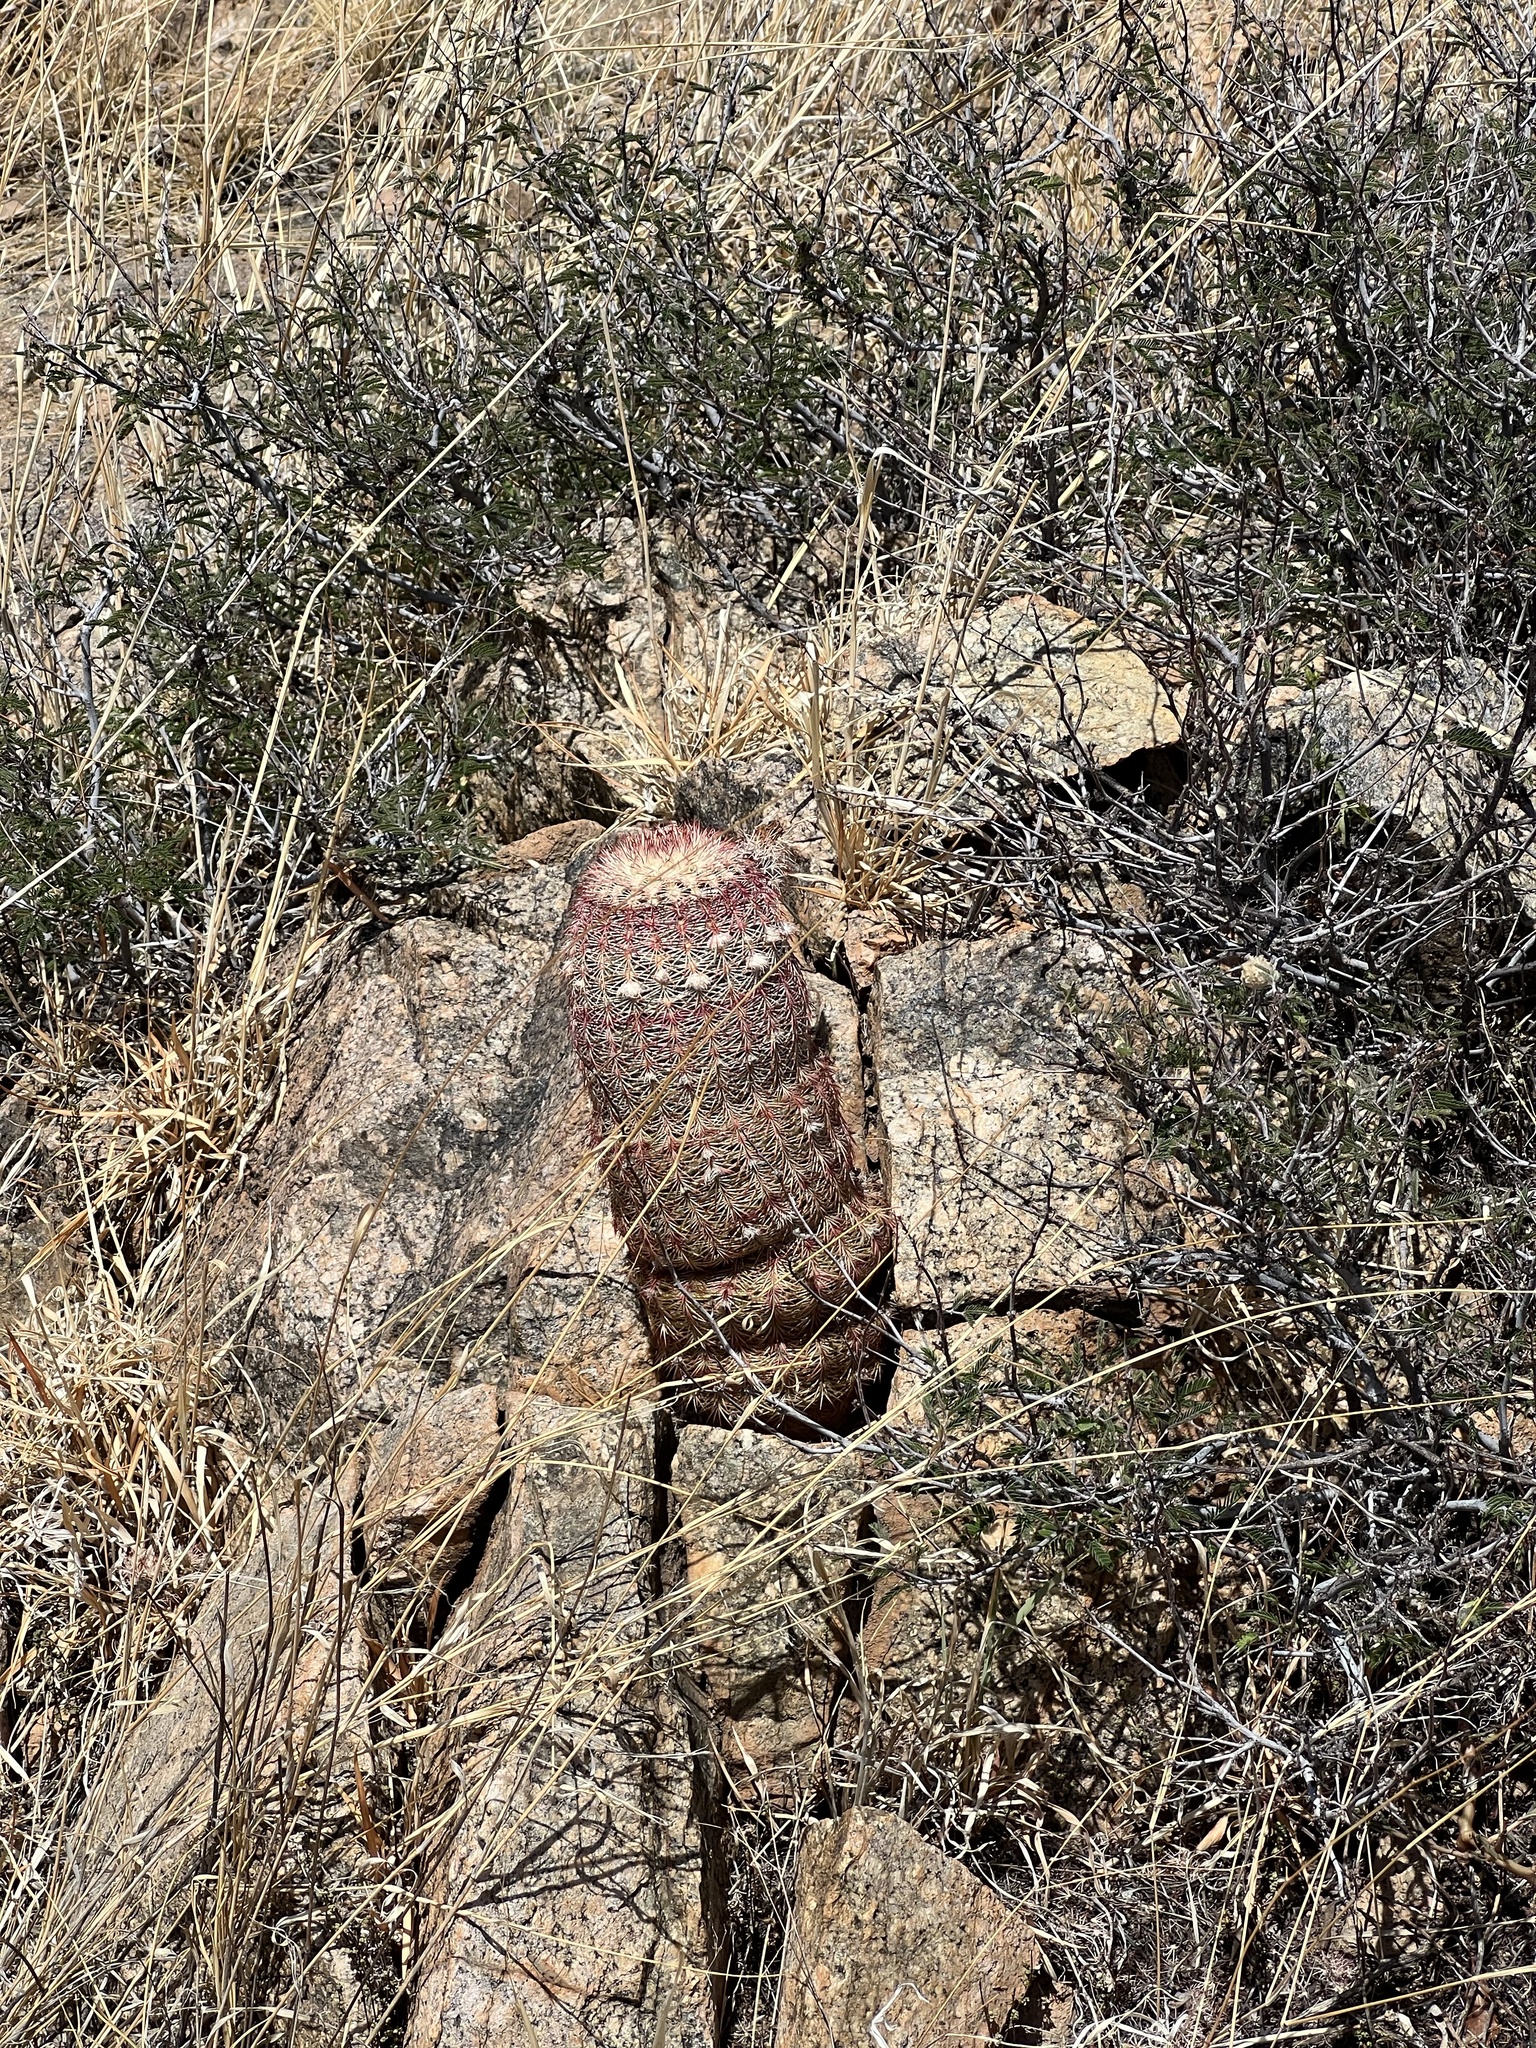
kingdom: Plantae
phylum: Tracheophyta
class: Magnoliopsida
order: Caryophyllales
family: Cactaceae
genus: Echinocereus
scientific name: Echinocereus rigidissimus
